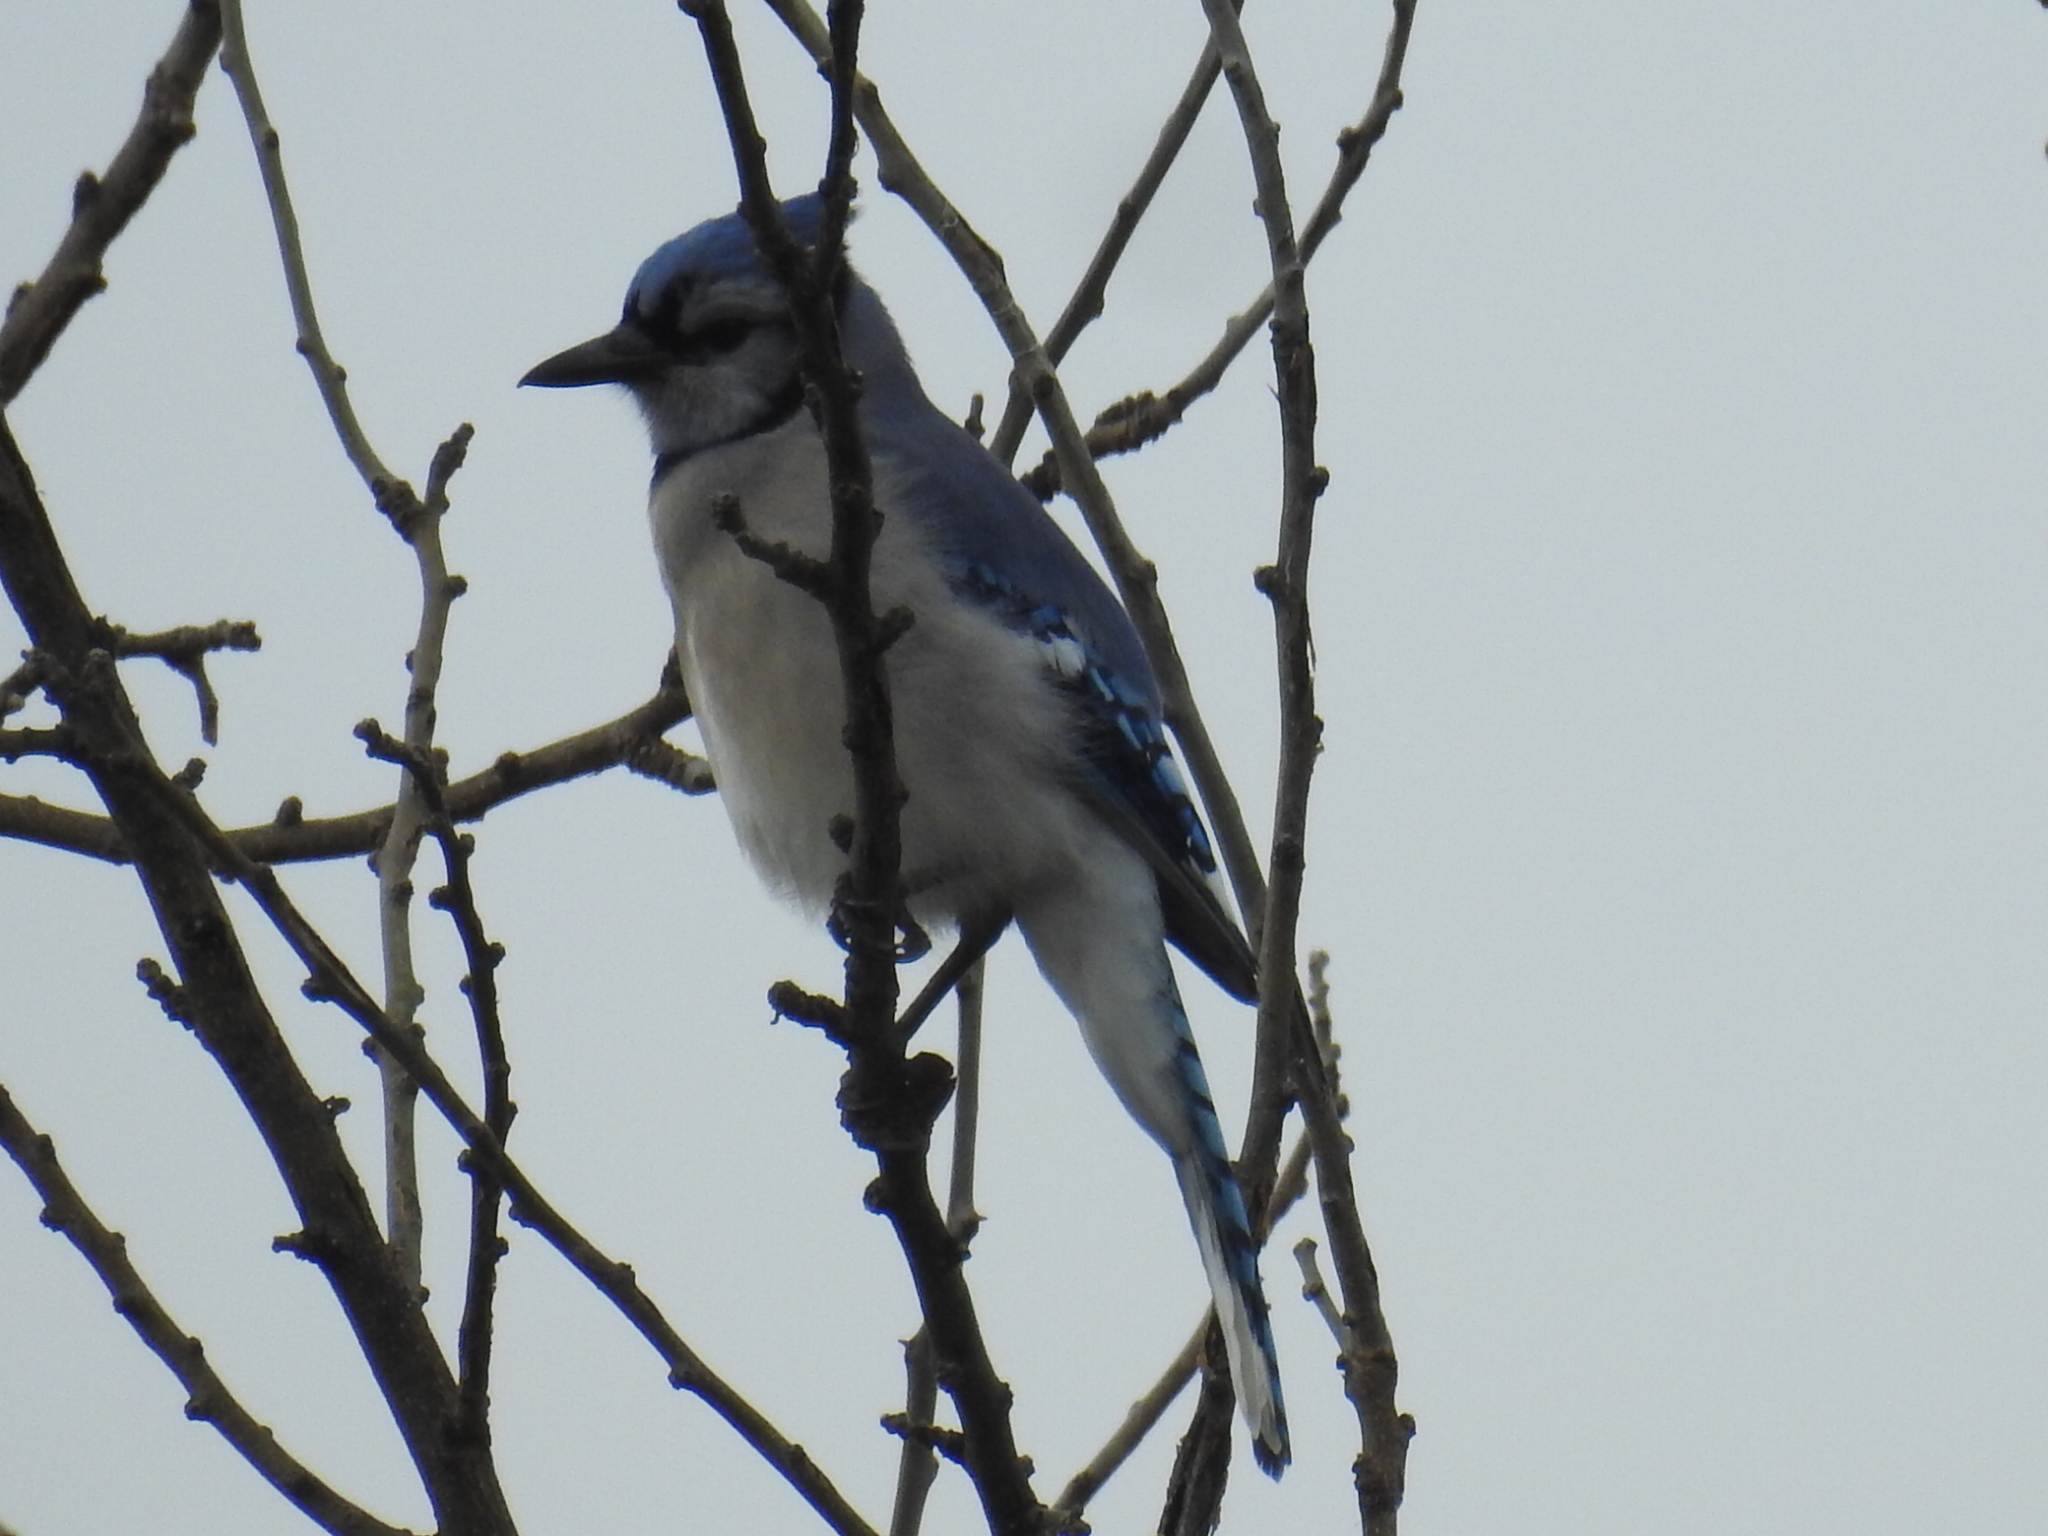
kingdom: Animalia
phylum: Chordata
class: Aves
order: Passeriformes
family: Corvidae
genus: Cyanocitta
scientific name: Cyanocitta cristata
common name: Blue jay
